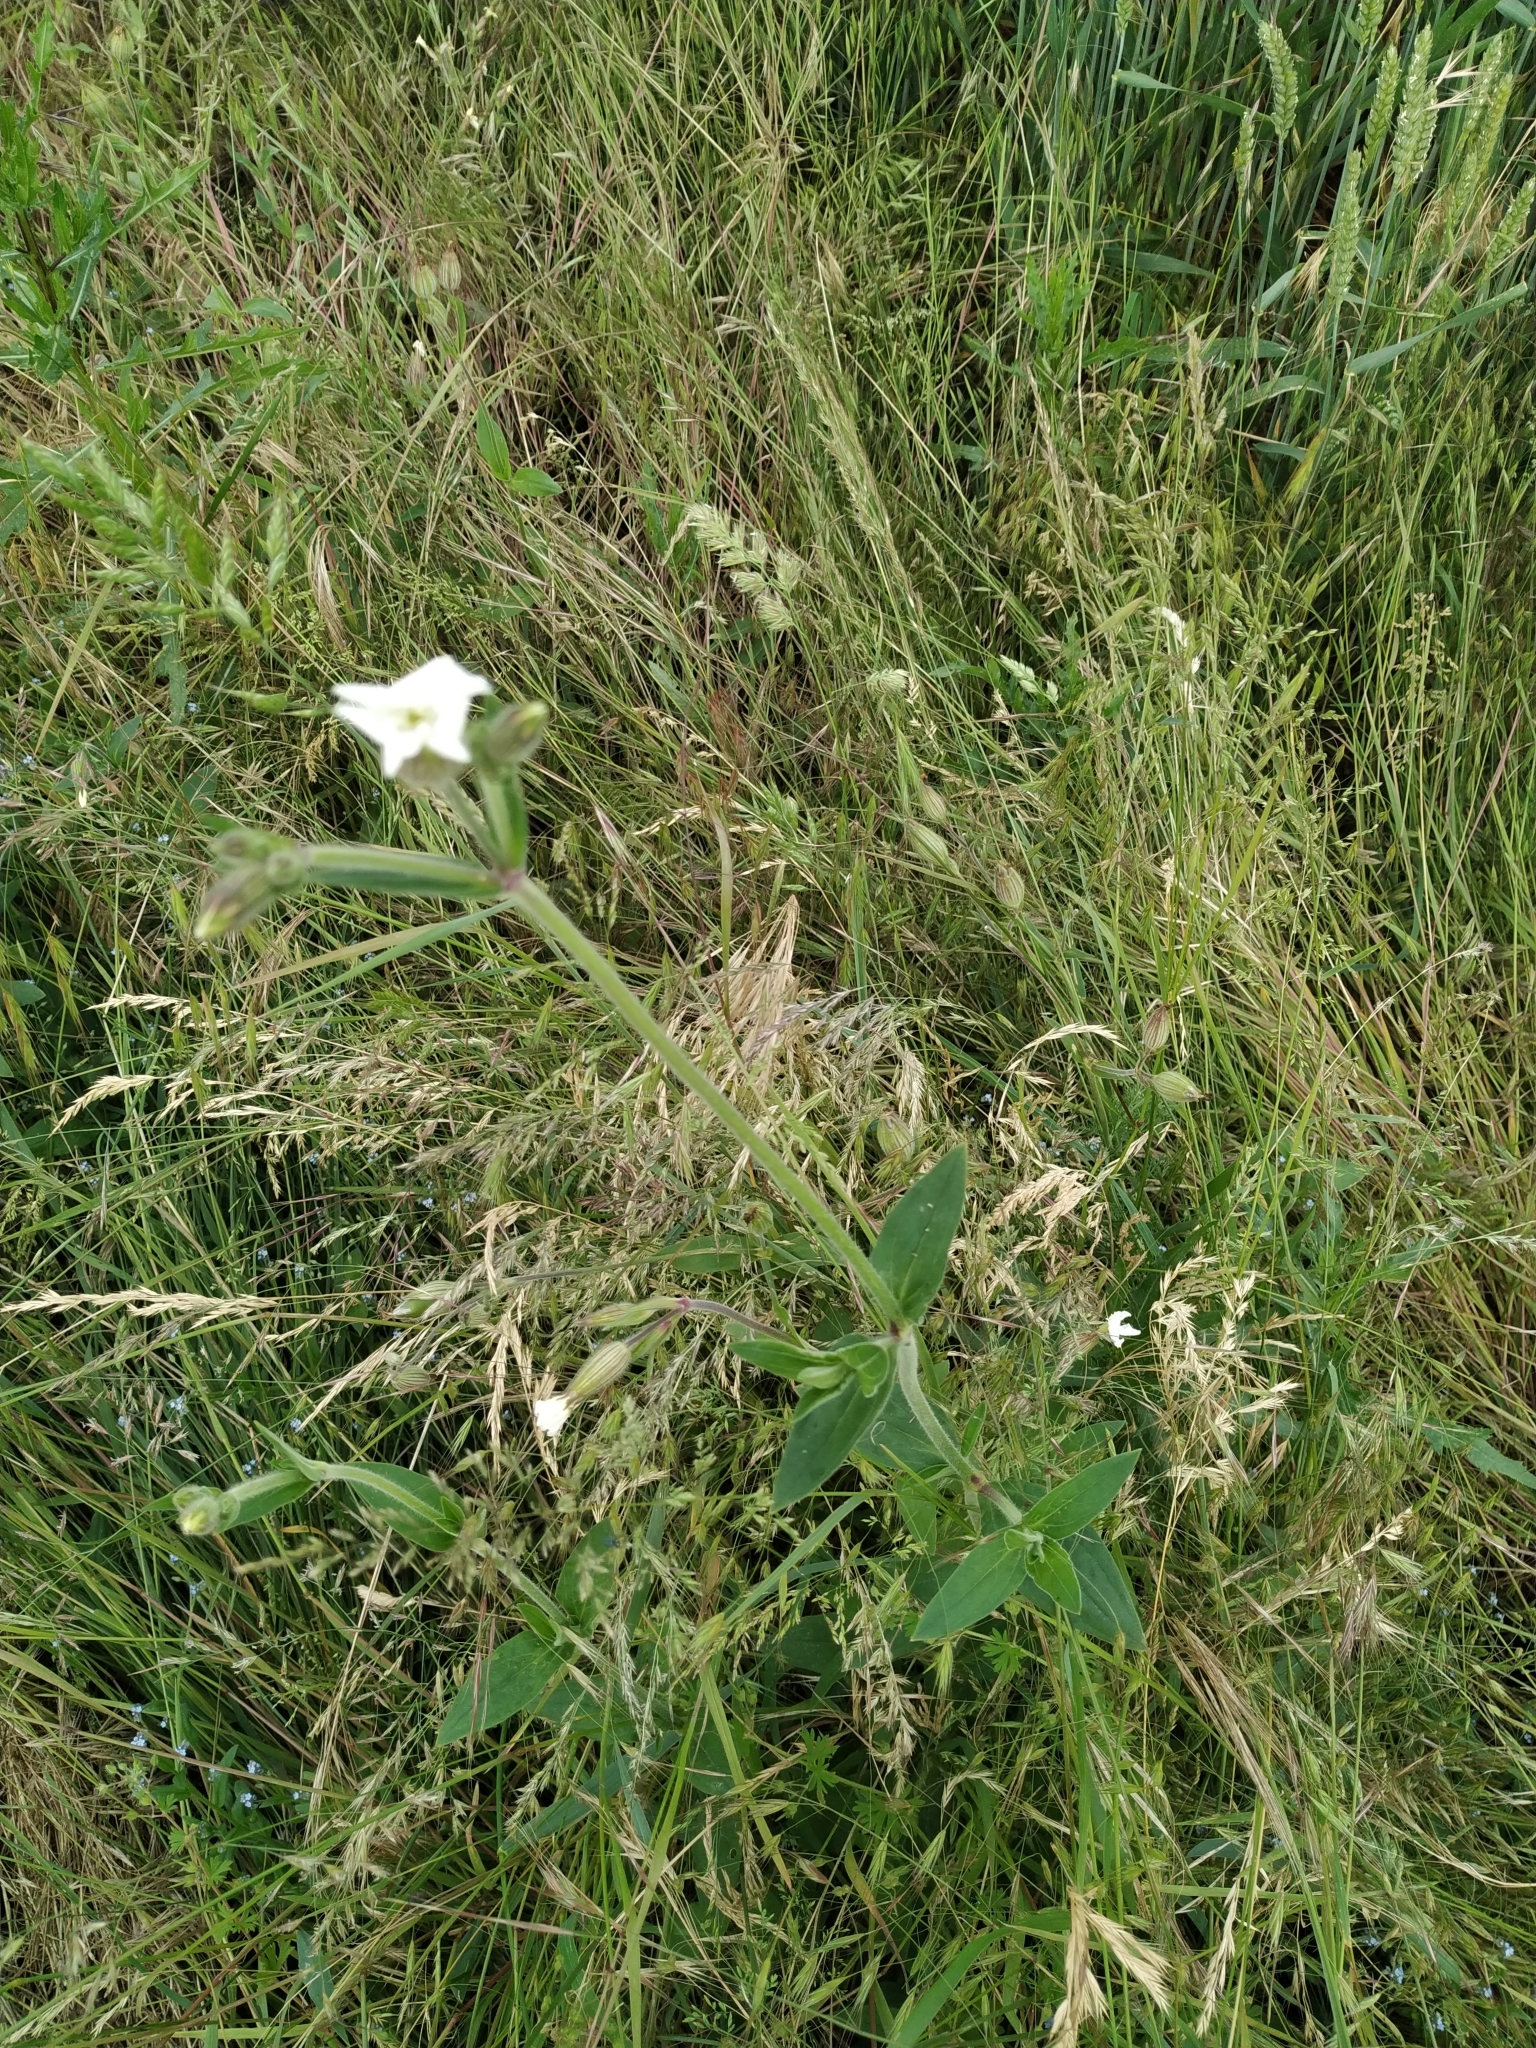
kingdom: Plantae
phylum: Tracheophyta
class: Magnoliopsida
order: Caryophyllales
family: Caryophyllaceae
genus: Silene
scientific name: Silene latifolia
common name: White campion
